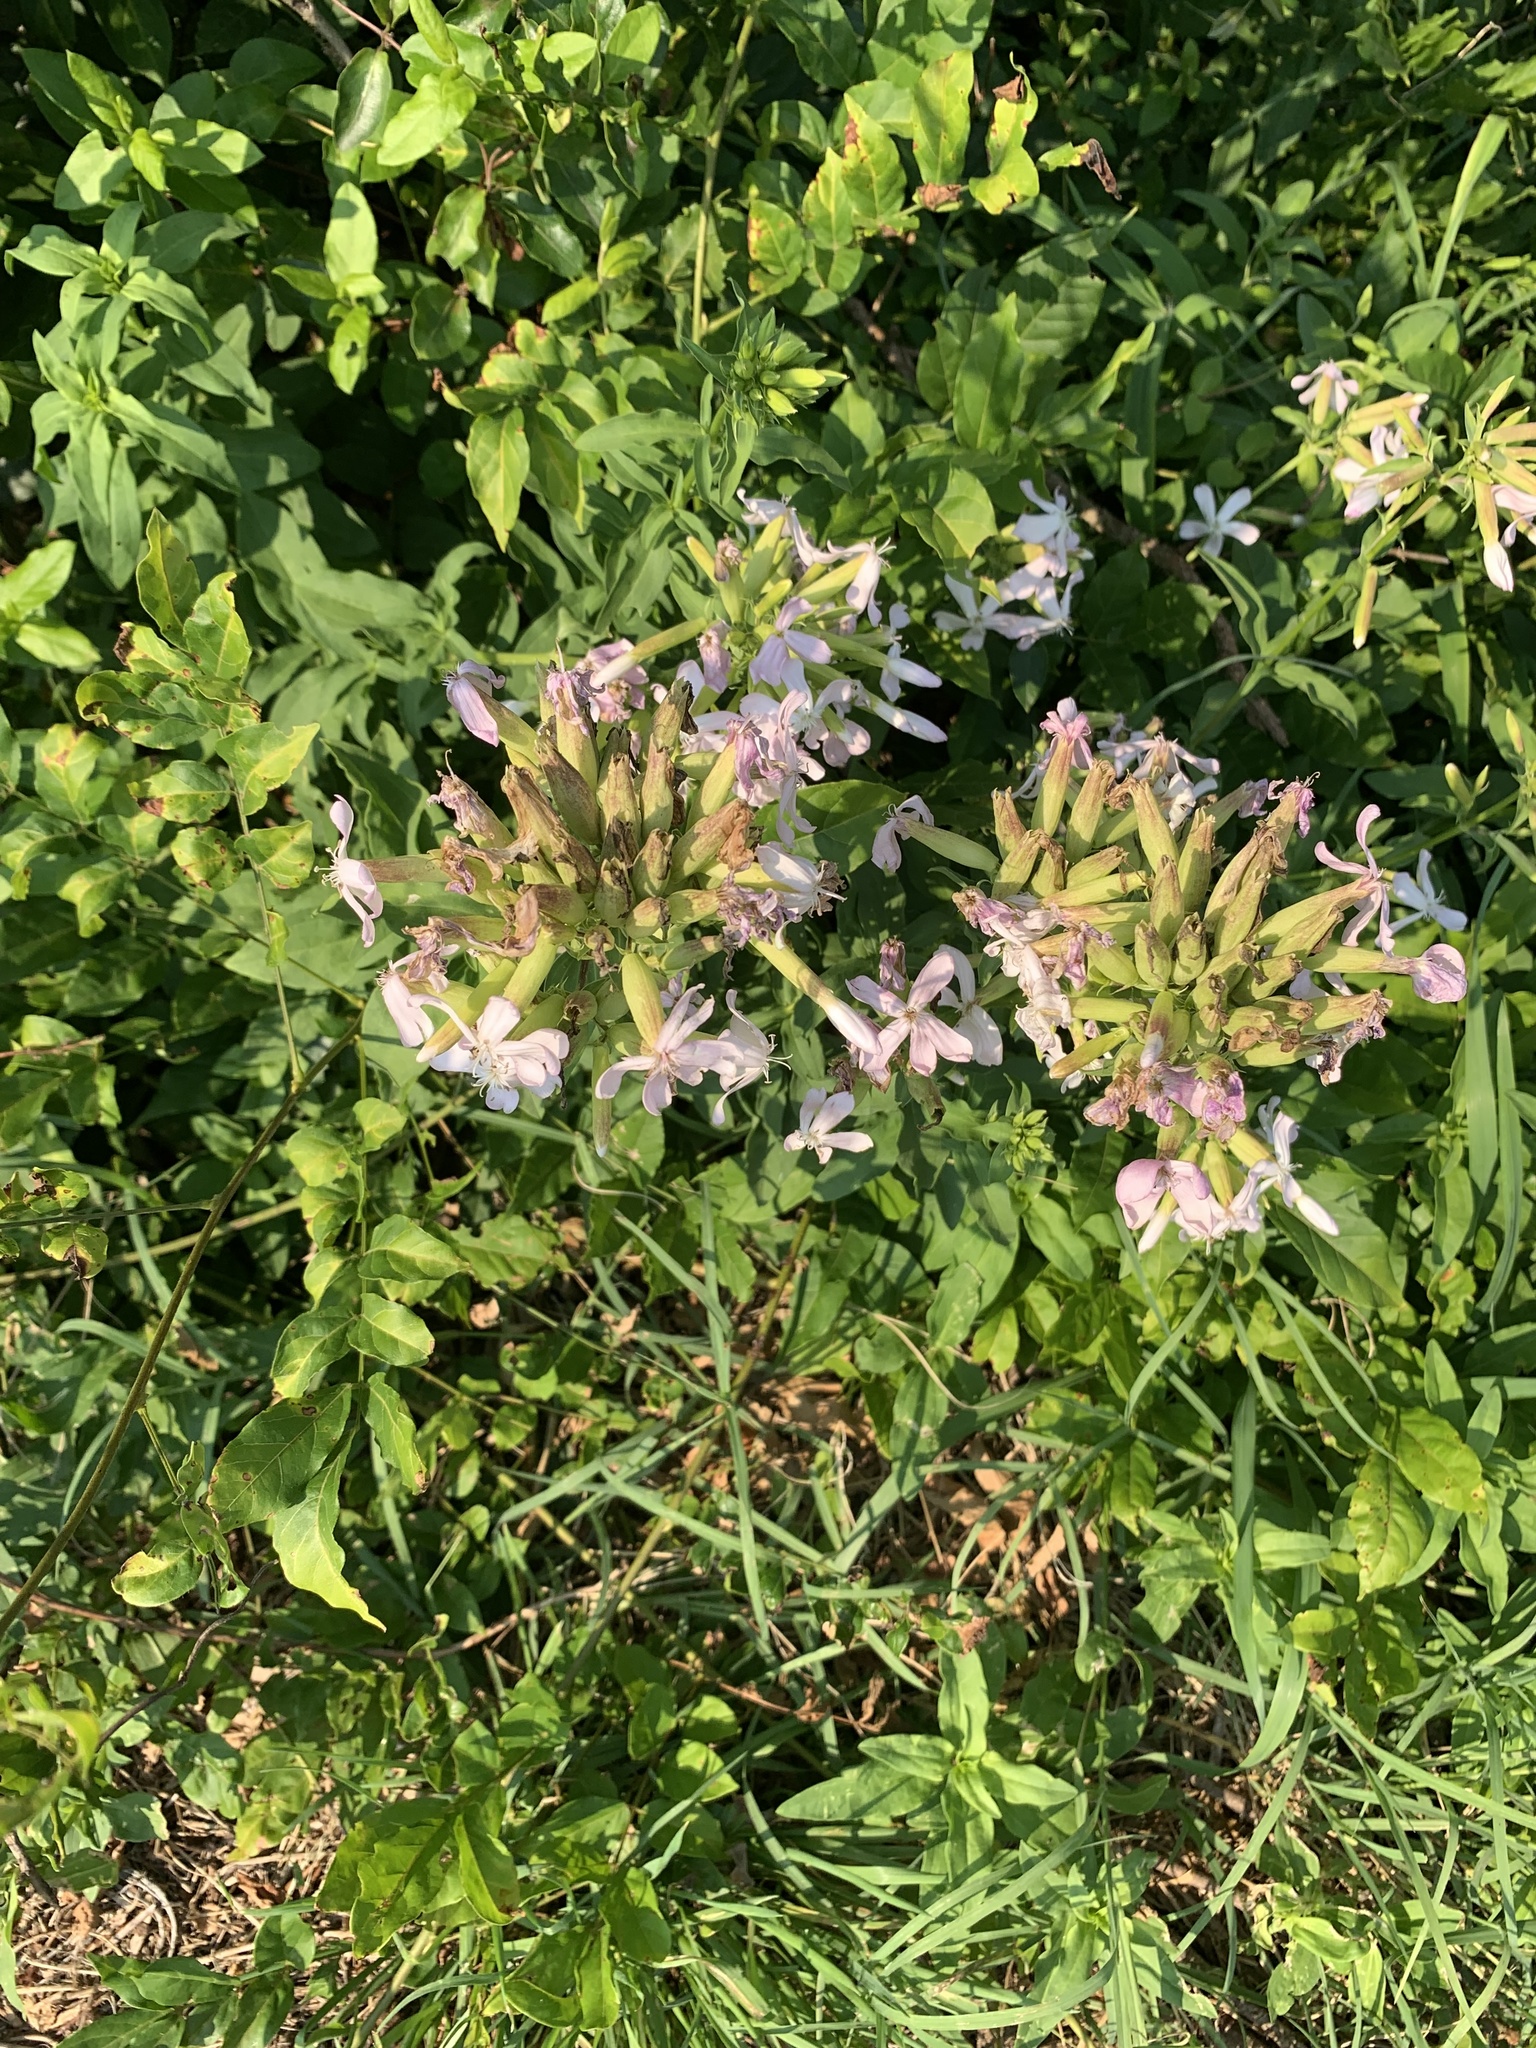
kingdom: Plantae
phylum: Tracheophyta
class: Magnoliopsida
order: Caryophyllales
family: Caryophyllaceae
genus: Saponaria
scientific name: Saponaria officinalis
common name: Soapwort
